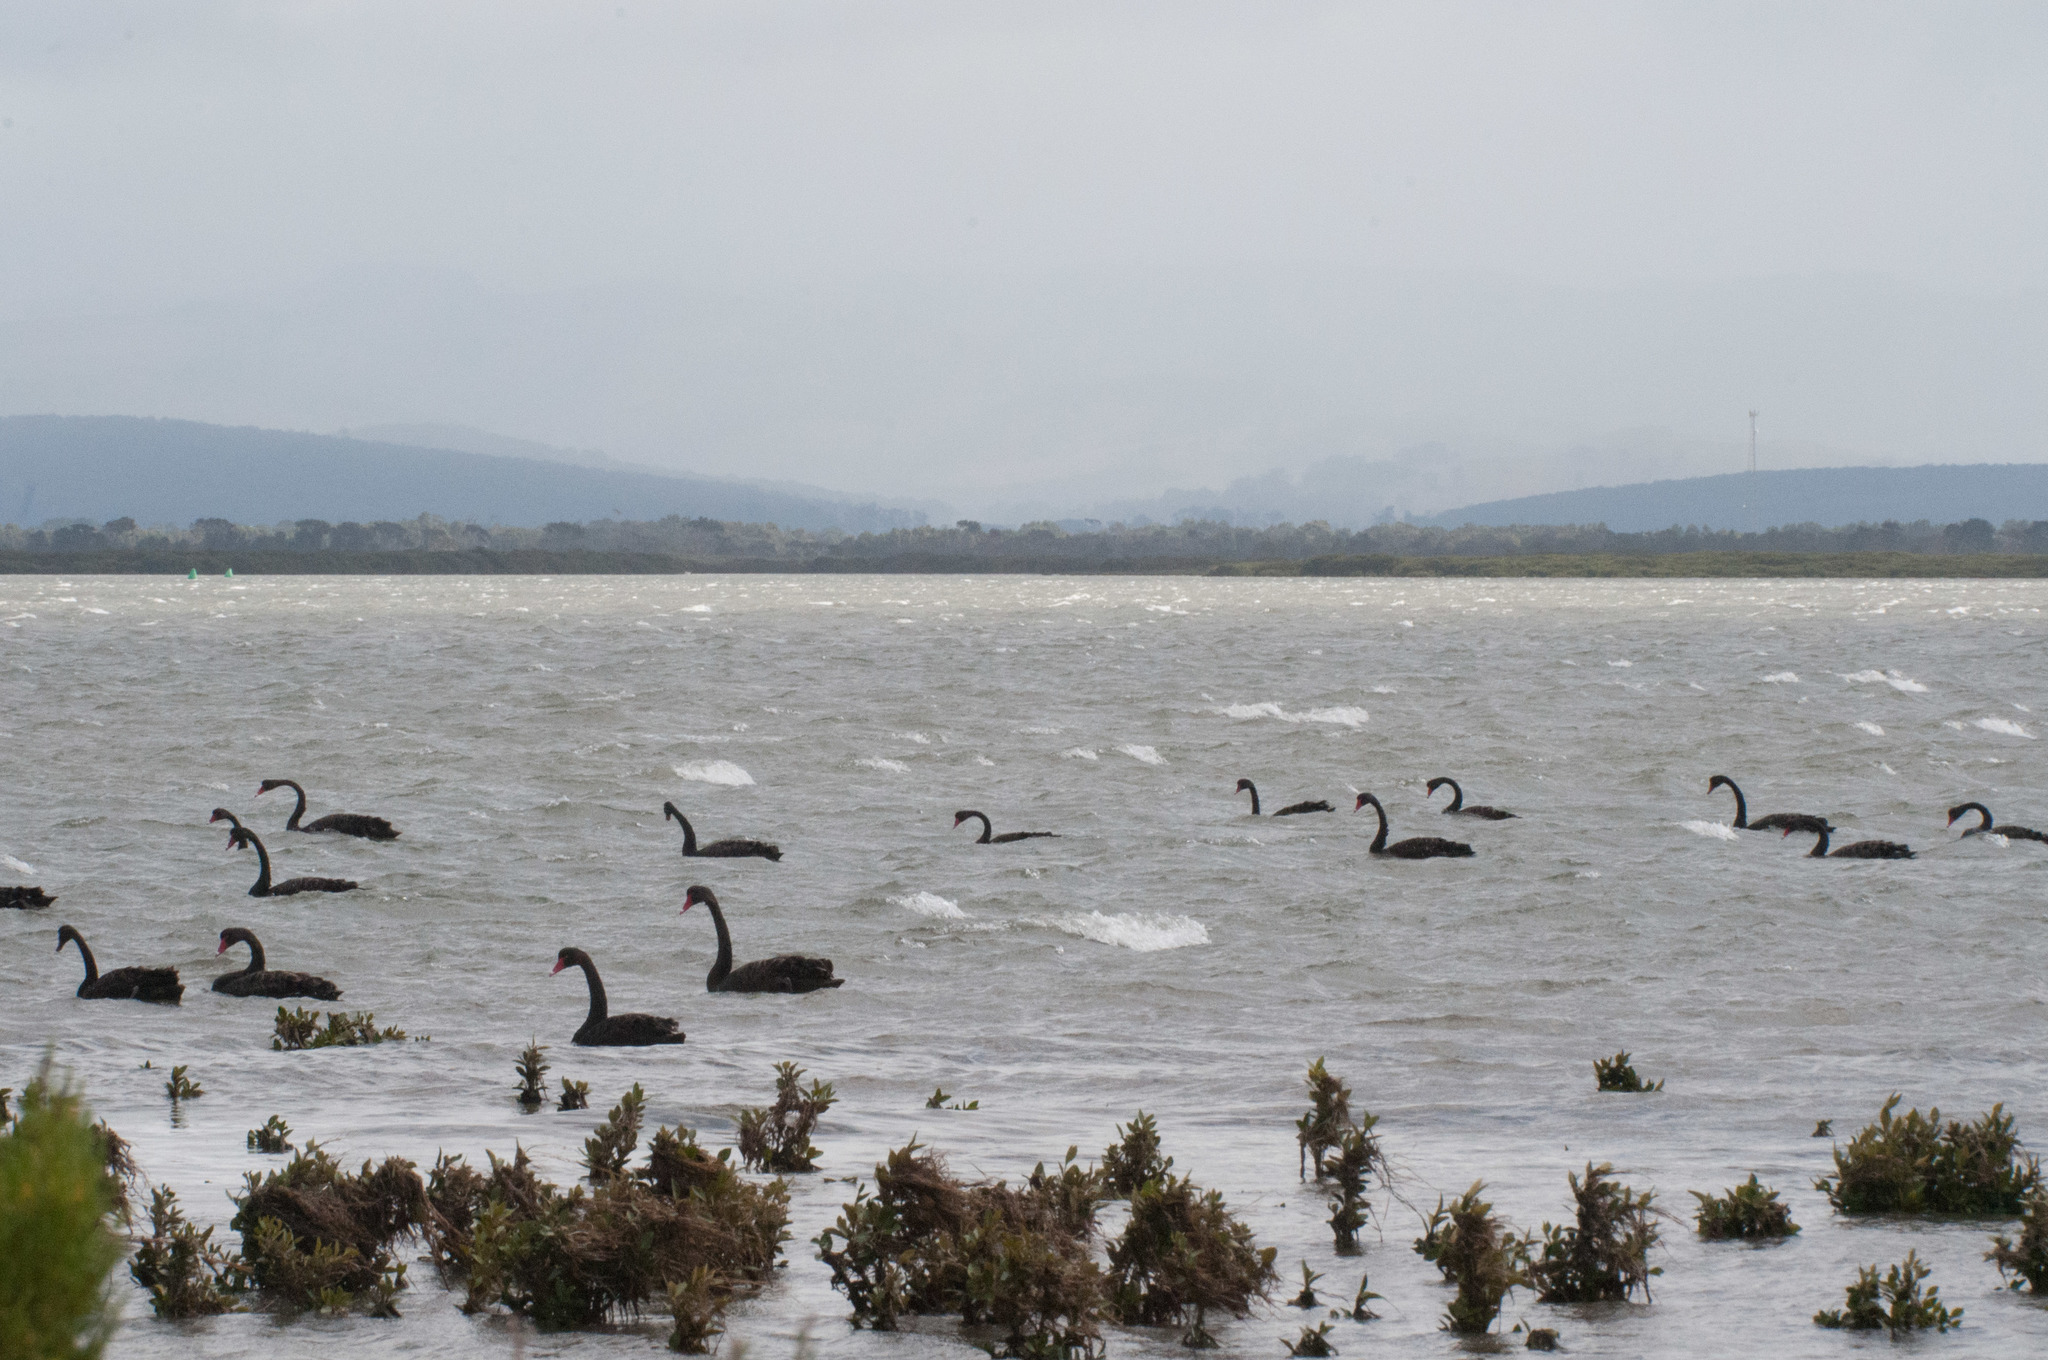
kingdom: Animalia
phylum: Chordata
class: Aves
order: Anseriformes
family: Anatidae
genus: Cygnus
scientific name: Cygnus atratus
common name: Black swan
